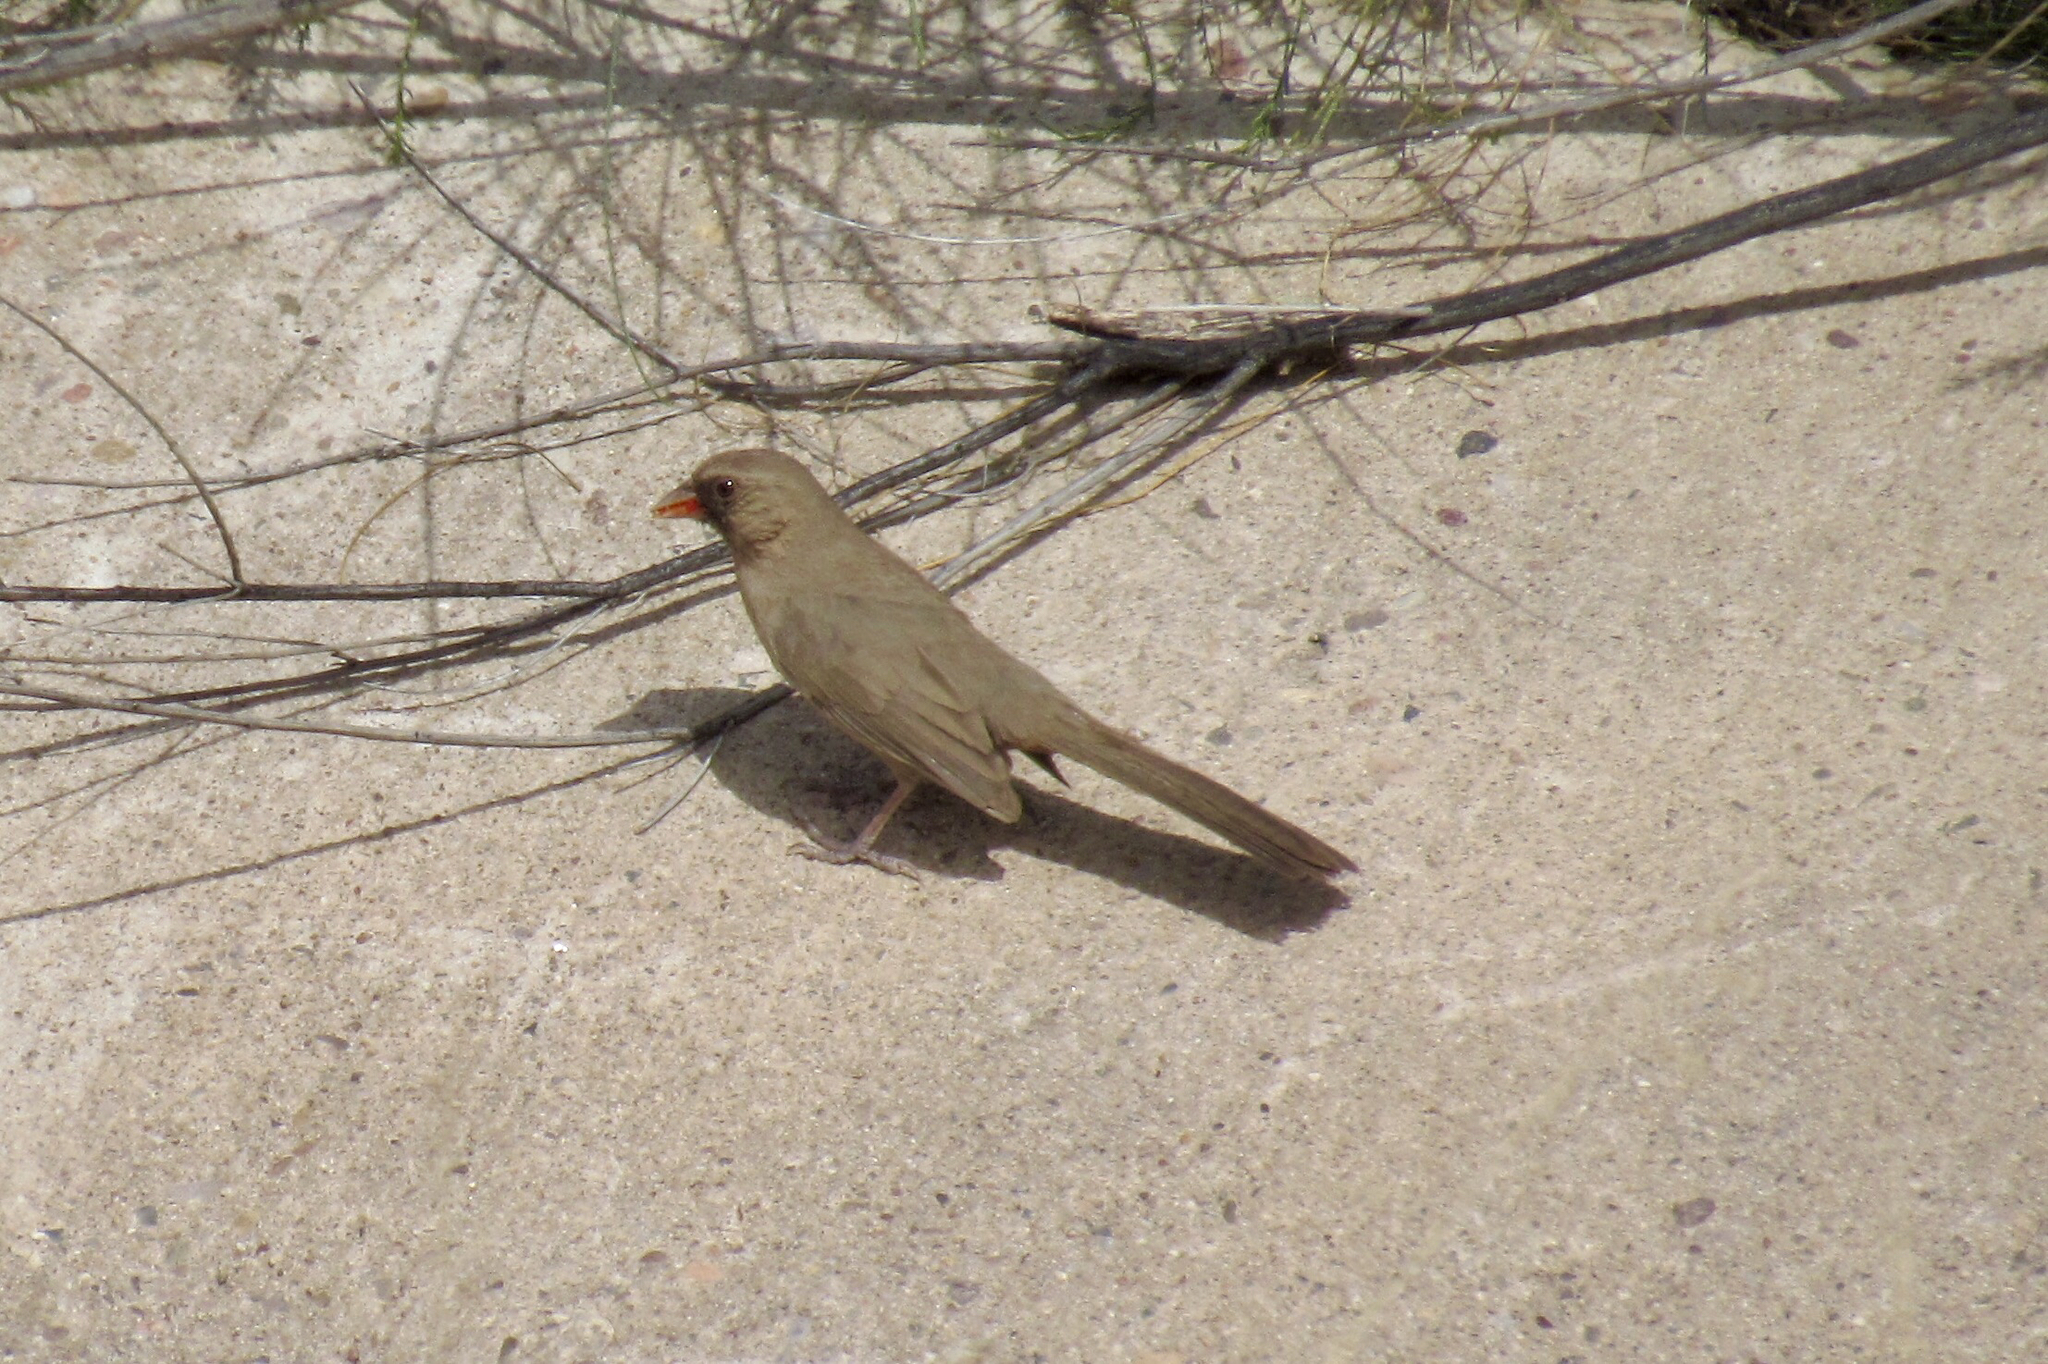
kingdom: Animalia
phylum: Chordata
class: Aves
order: Passeriformes
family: Passerellidae
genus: Melozone
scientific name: Melozone aberti
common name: Abert's towhee
